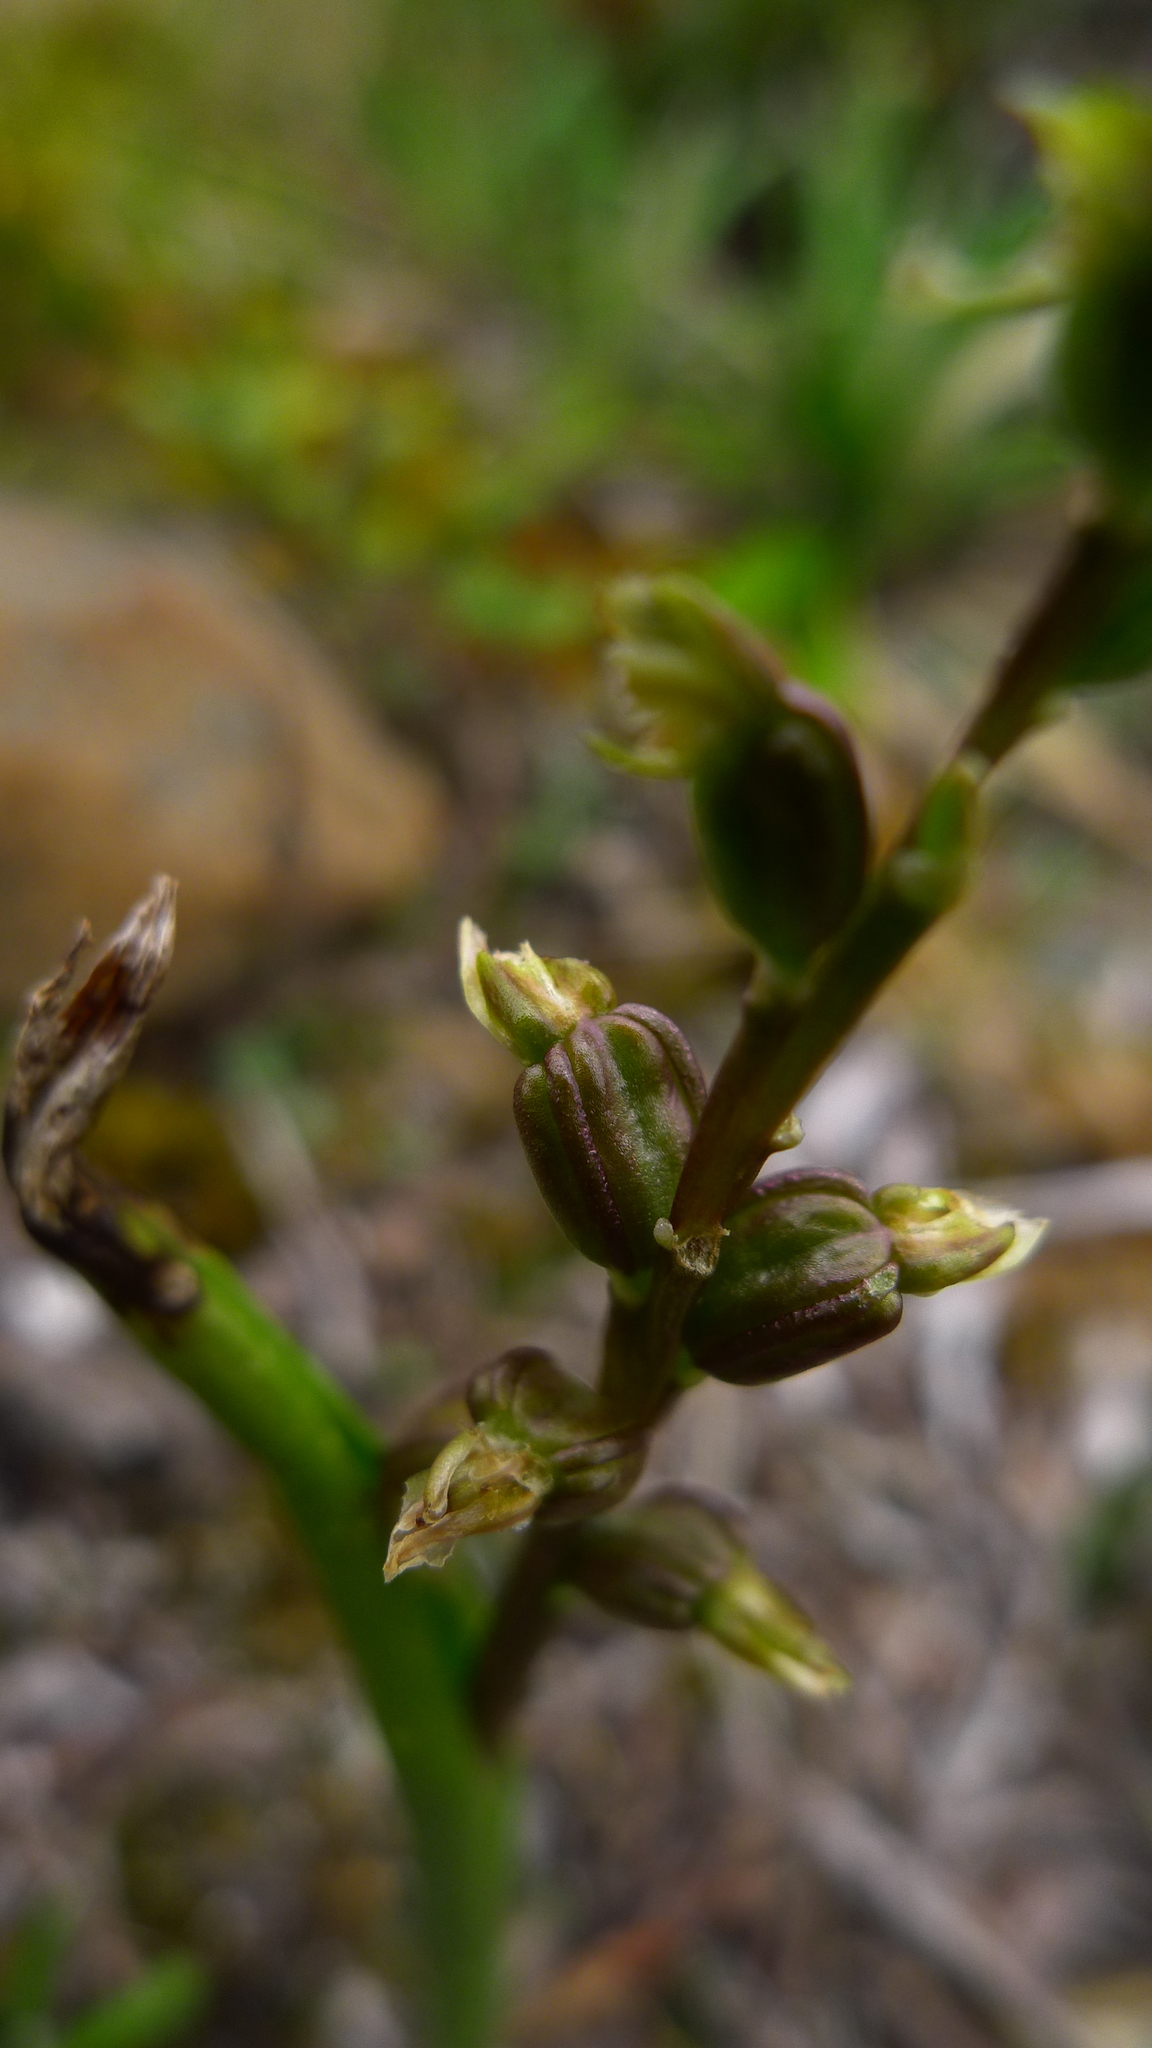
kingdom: Plantae
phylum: Tracheophyta
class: Liliopsida
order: Asparagales
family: Orchidaceae
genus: Prasophyllum
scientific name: Prasophyllum colensoi
